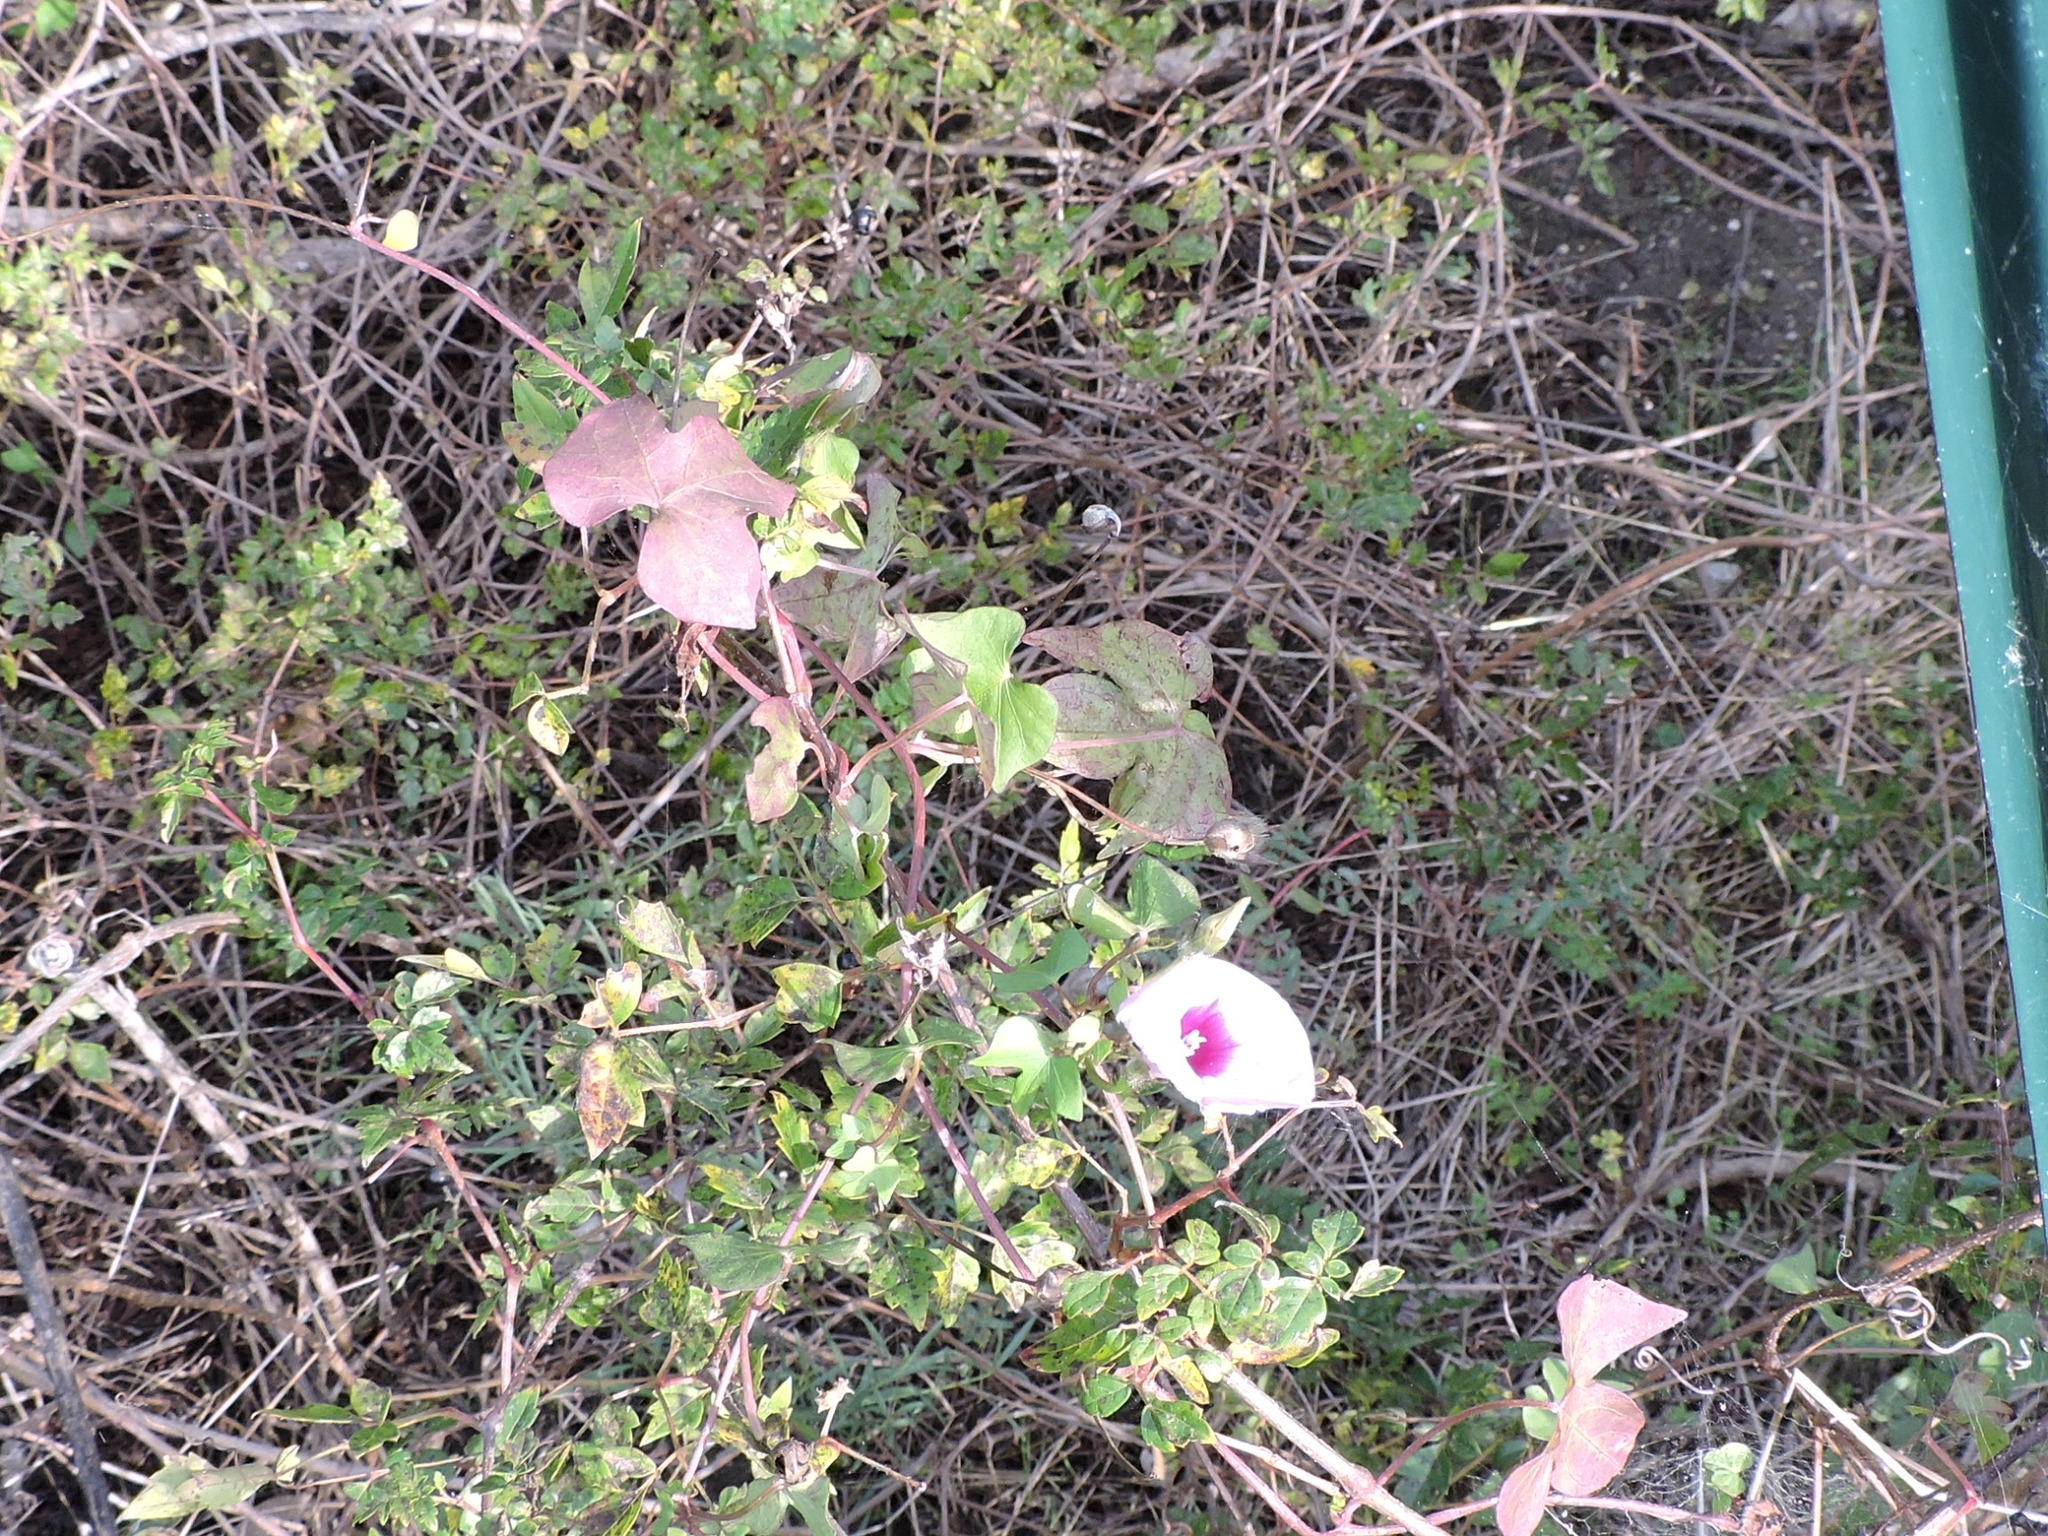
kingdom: Plantae
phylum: Tracheophyta
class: Magnoliopsida
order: Solanales
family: Convolvulaceae
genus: Ipomoea
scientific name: Ipomoea cordatotriloba
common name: Cotton morning glory
